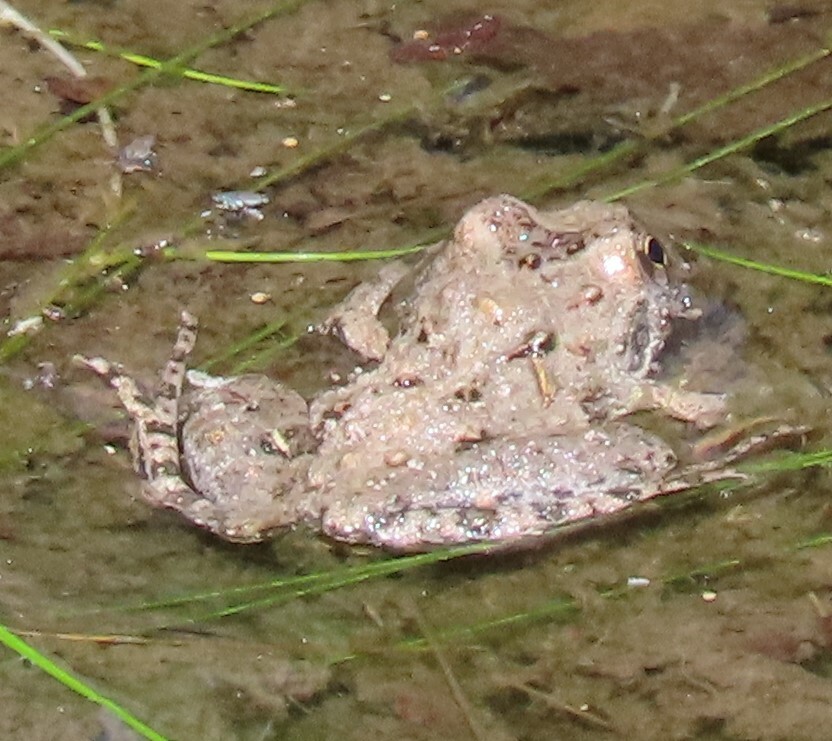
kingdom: Animalia
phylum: Chordata
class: Amphibia
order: Anura
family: Hylidae
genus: Acris
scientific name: Acris crepitans
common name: Northern cricket frog
